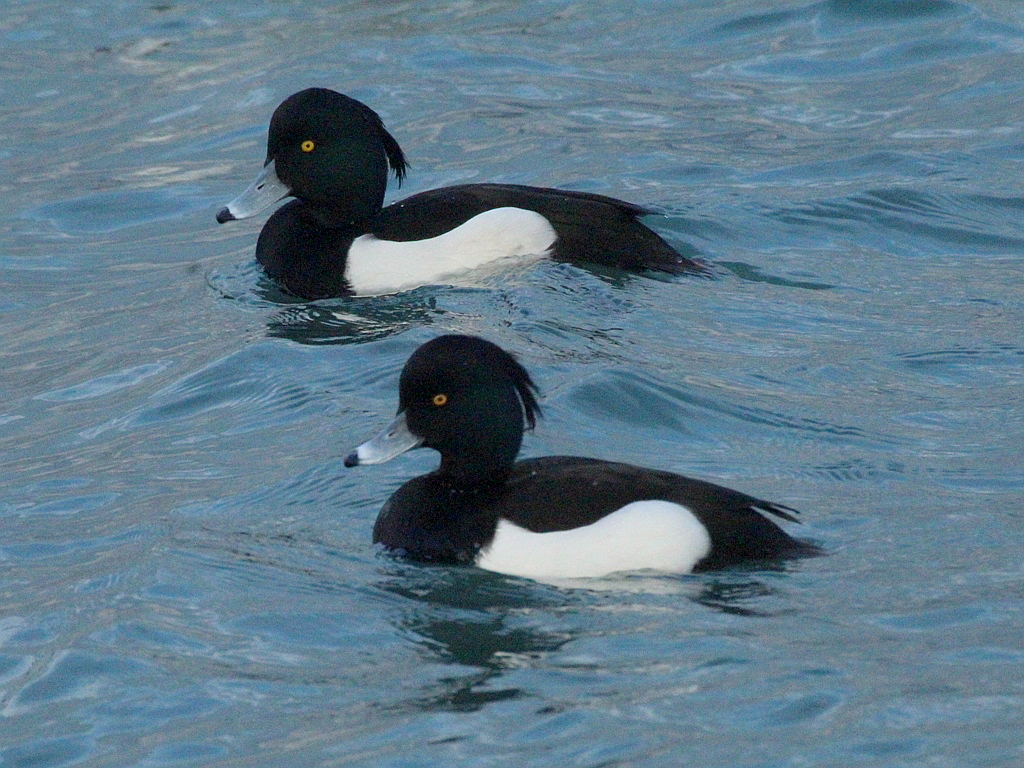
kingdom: Animalia
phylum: Chordata
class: Aves
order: Anseriformes
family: Anatidae
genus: Aythya
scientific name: Aythya fuligula
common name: Tufted duck
